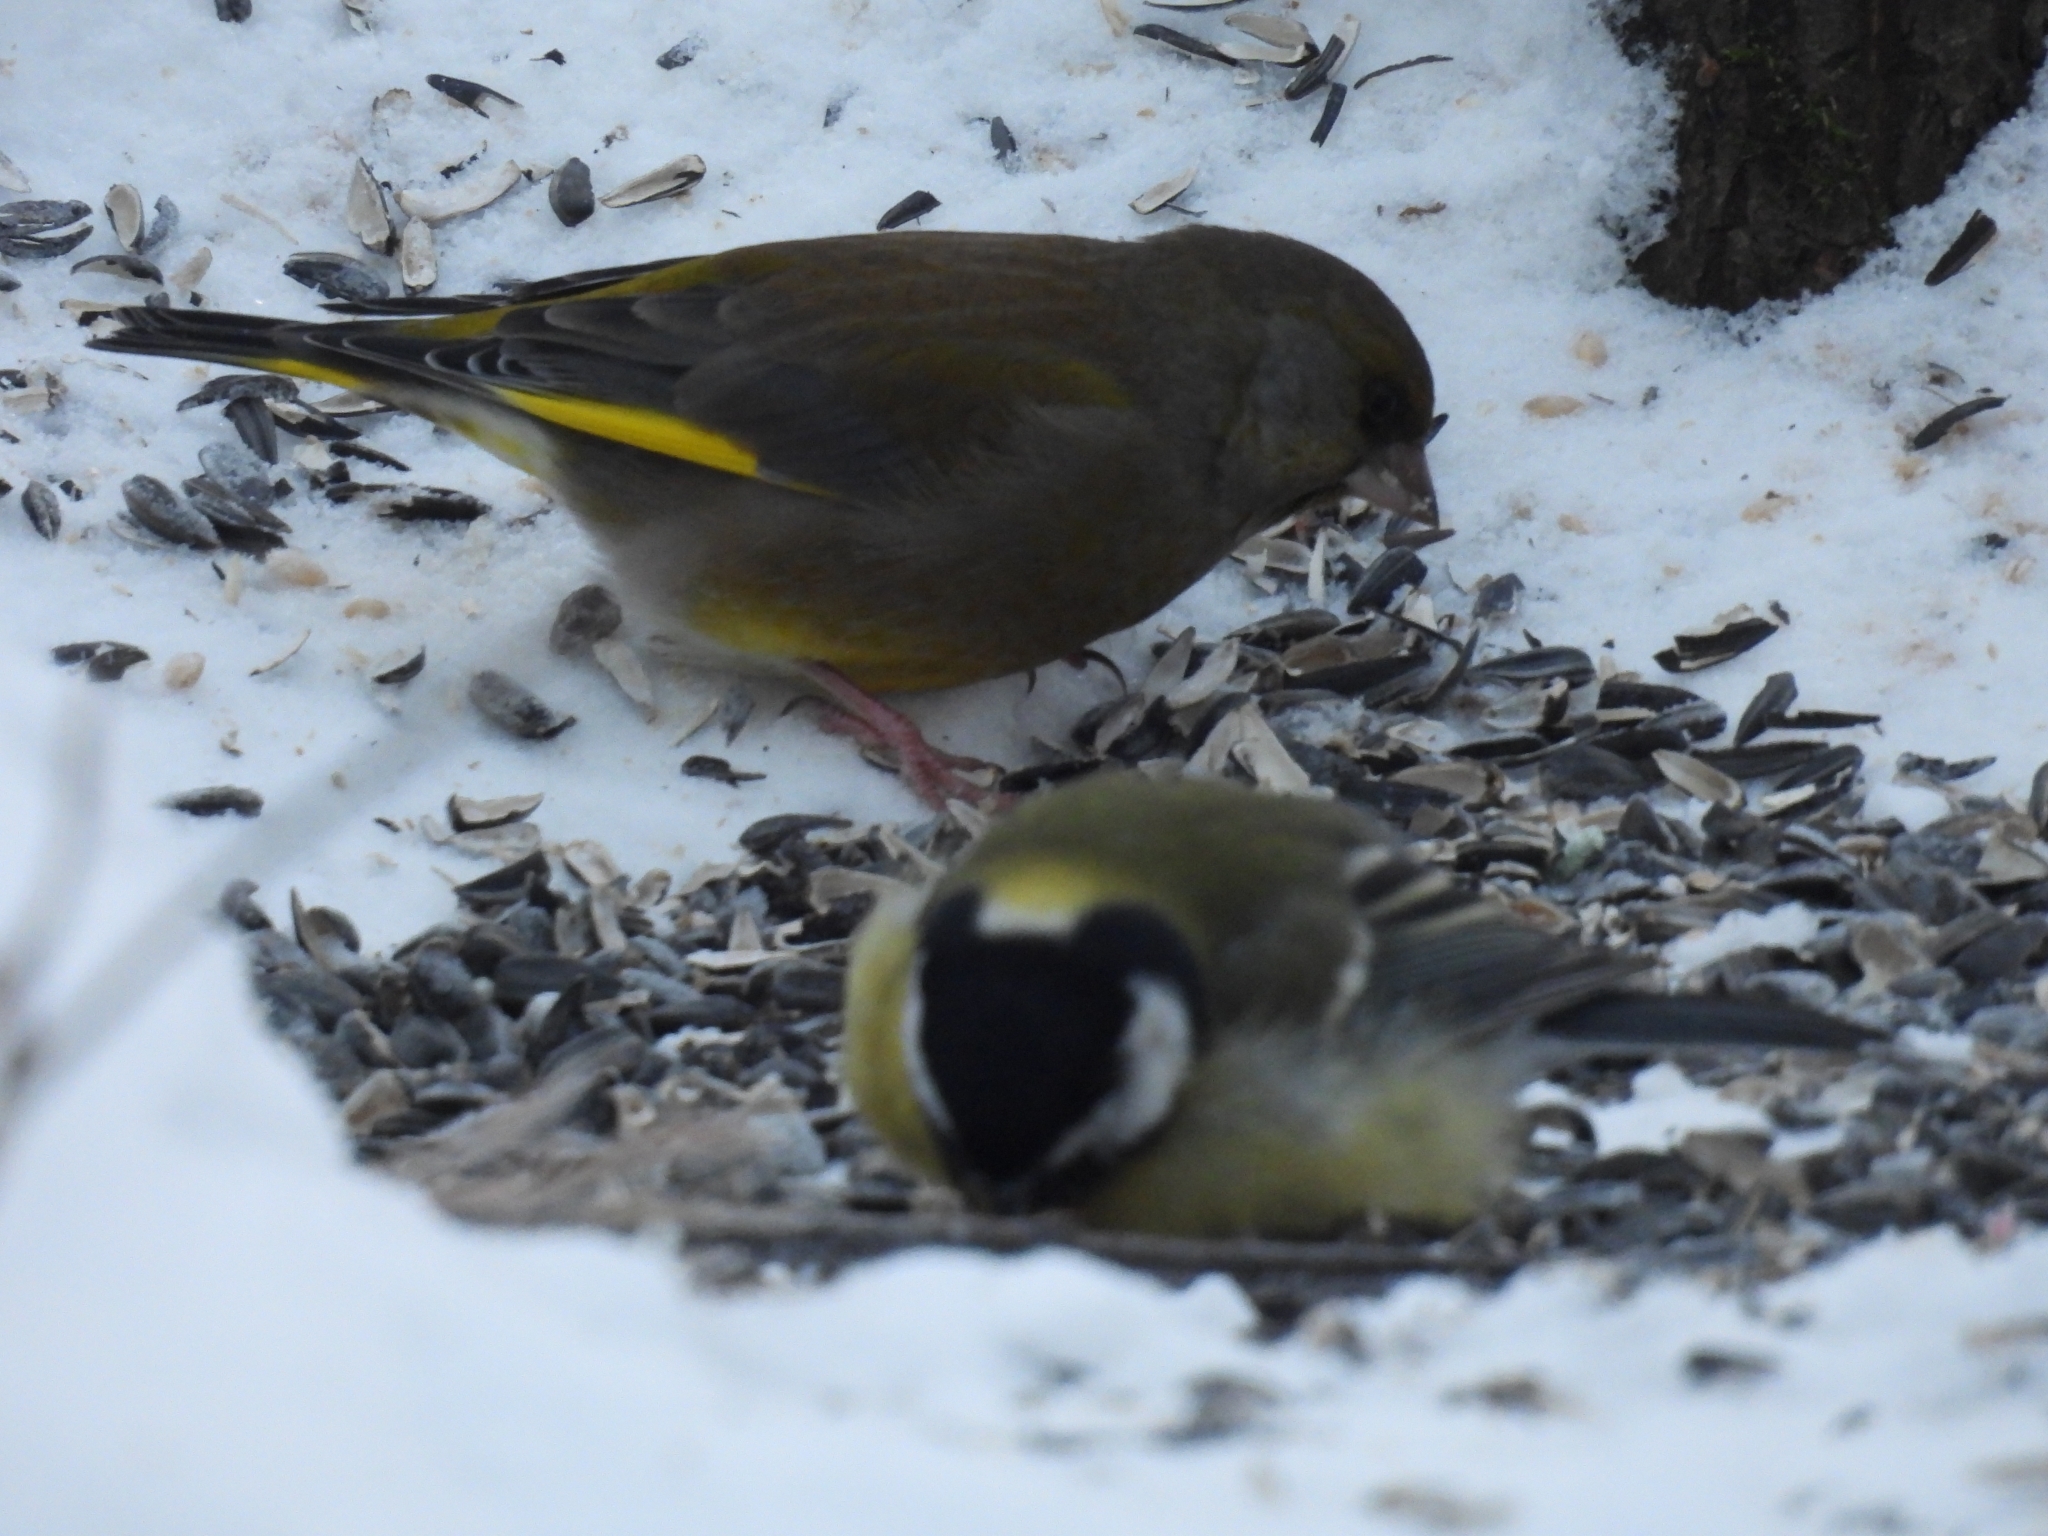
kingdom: Plantae
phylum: Tracheophyta
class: Liliopsida
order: Poales
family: Poaceae
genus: Chloris
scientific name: Chloris chloris
